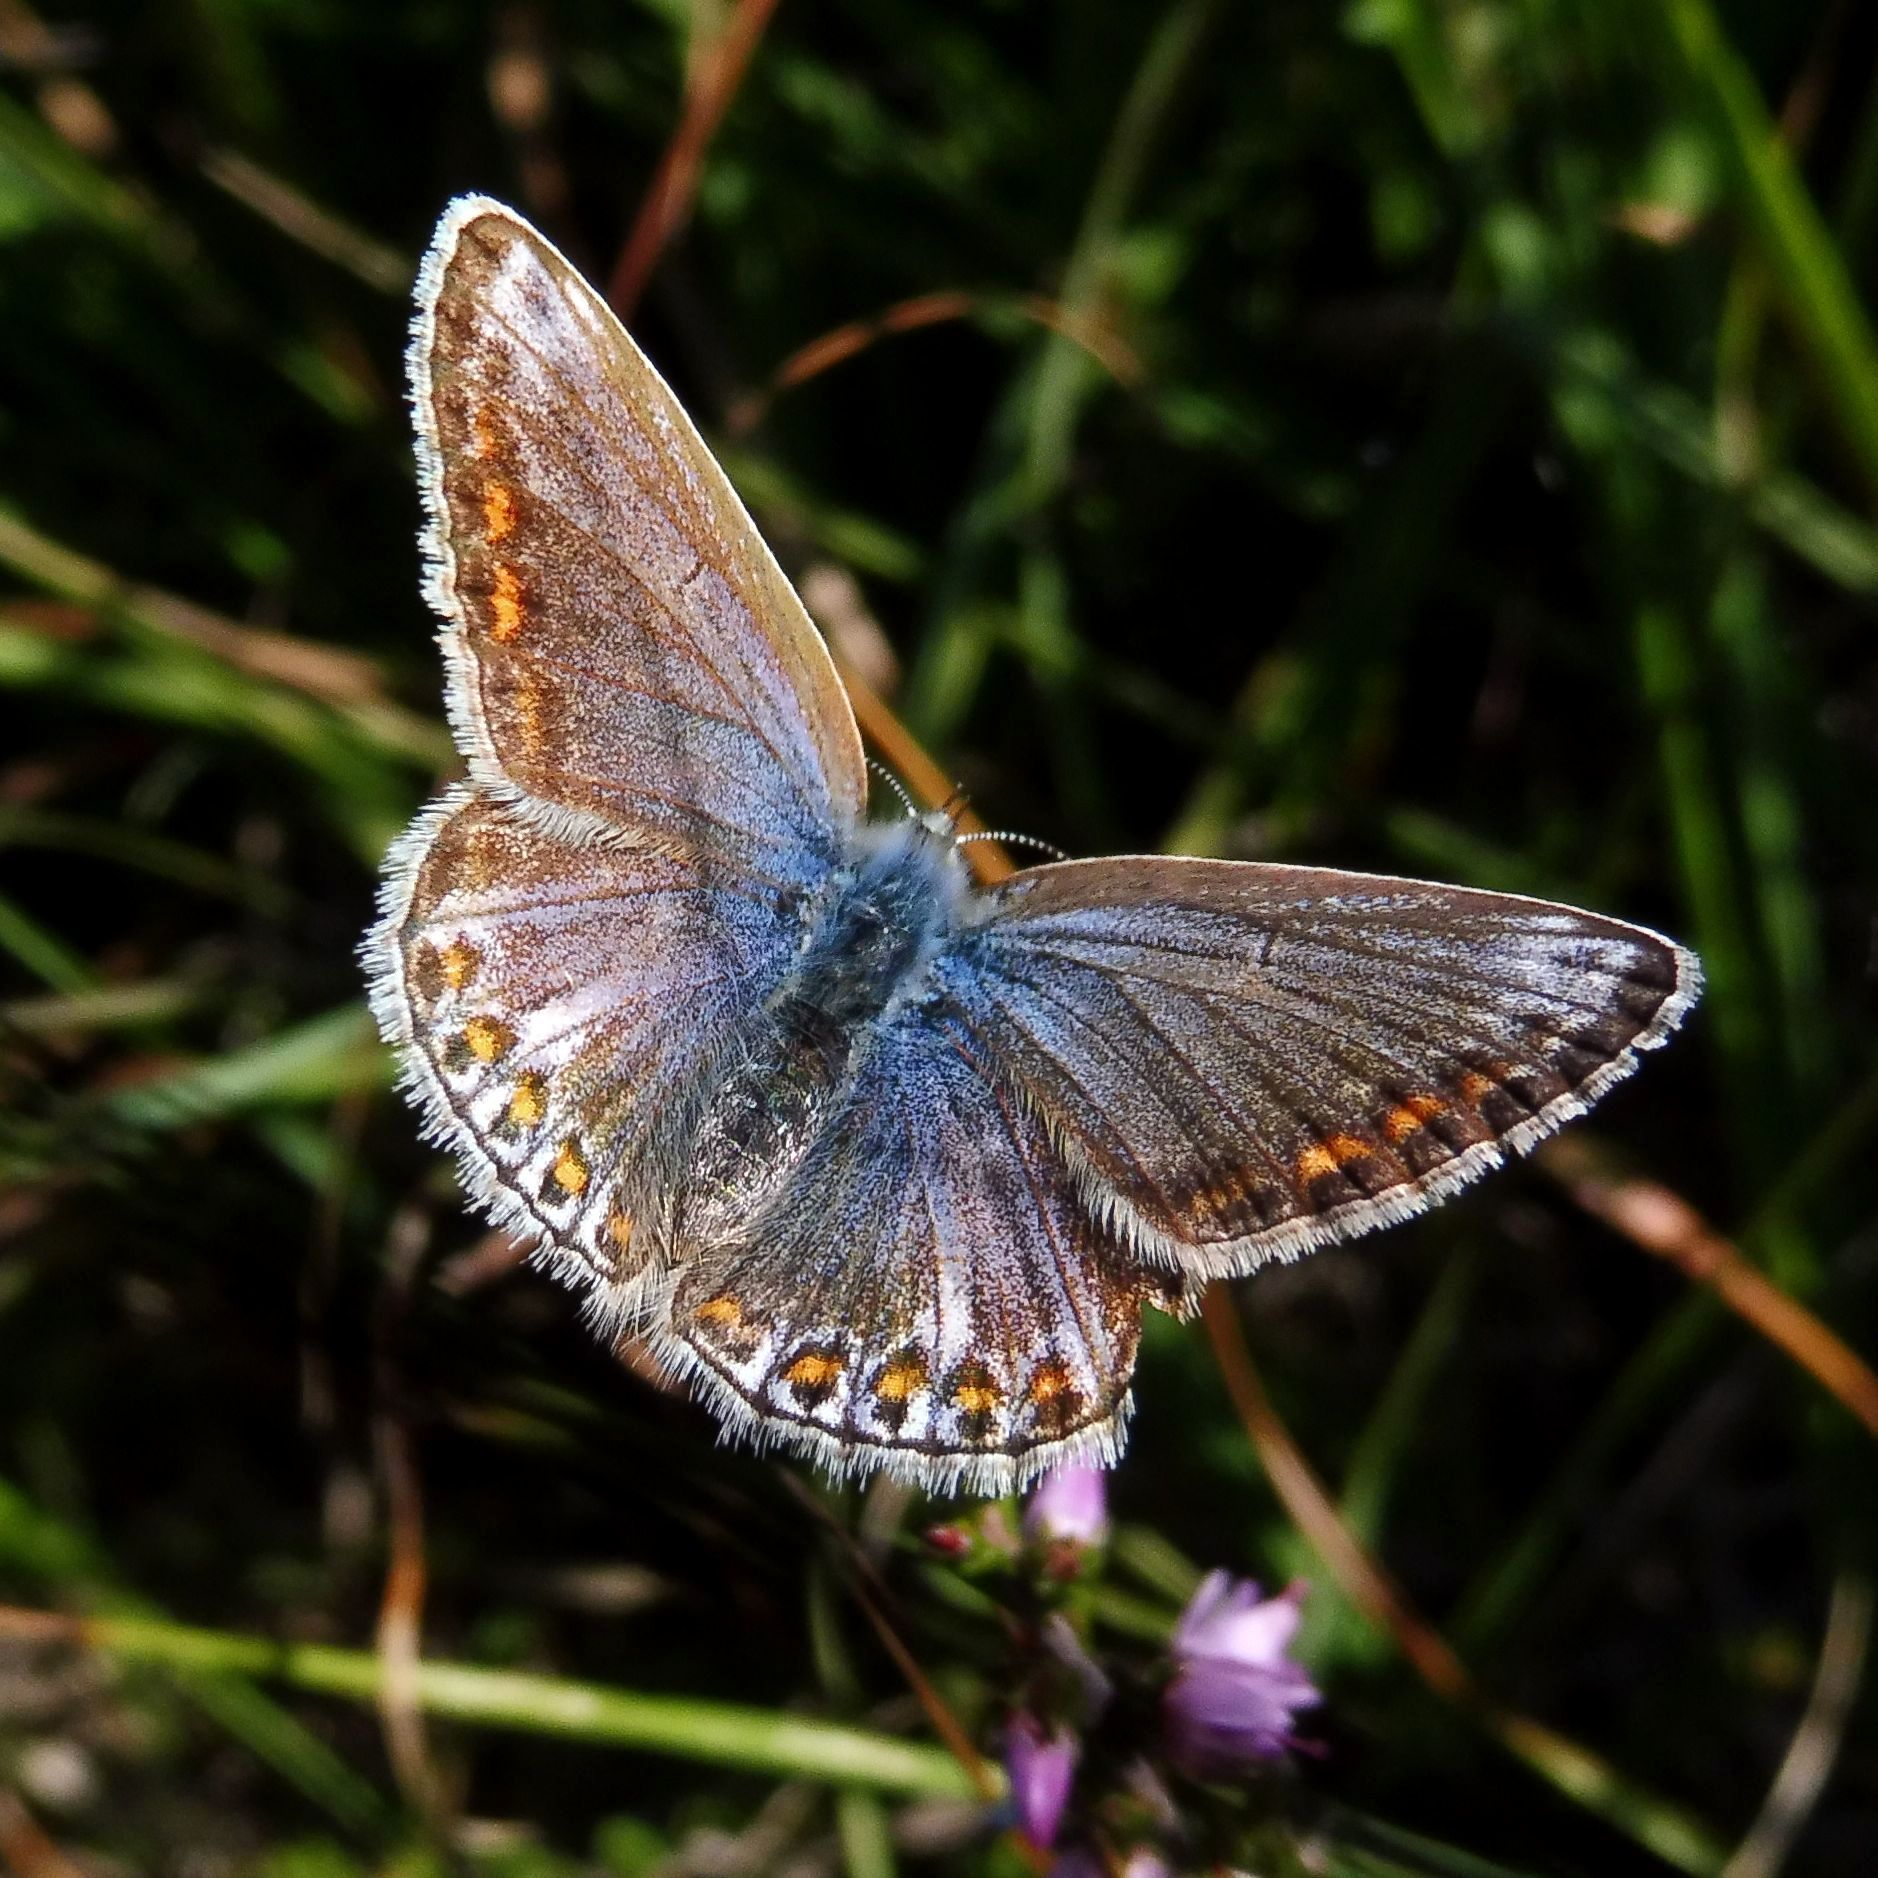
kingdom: Animalia
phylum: Arthropoda
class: Insecta
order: Lepidoptera
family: Lycaenidae
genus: Polyommatus
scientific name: Polyommatus icarus
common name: Common blue
